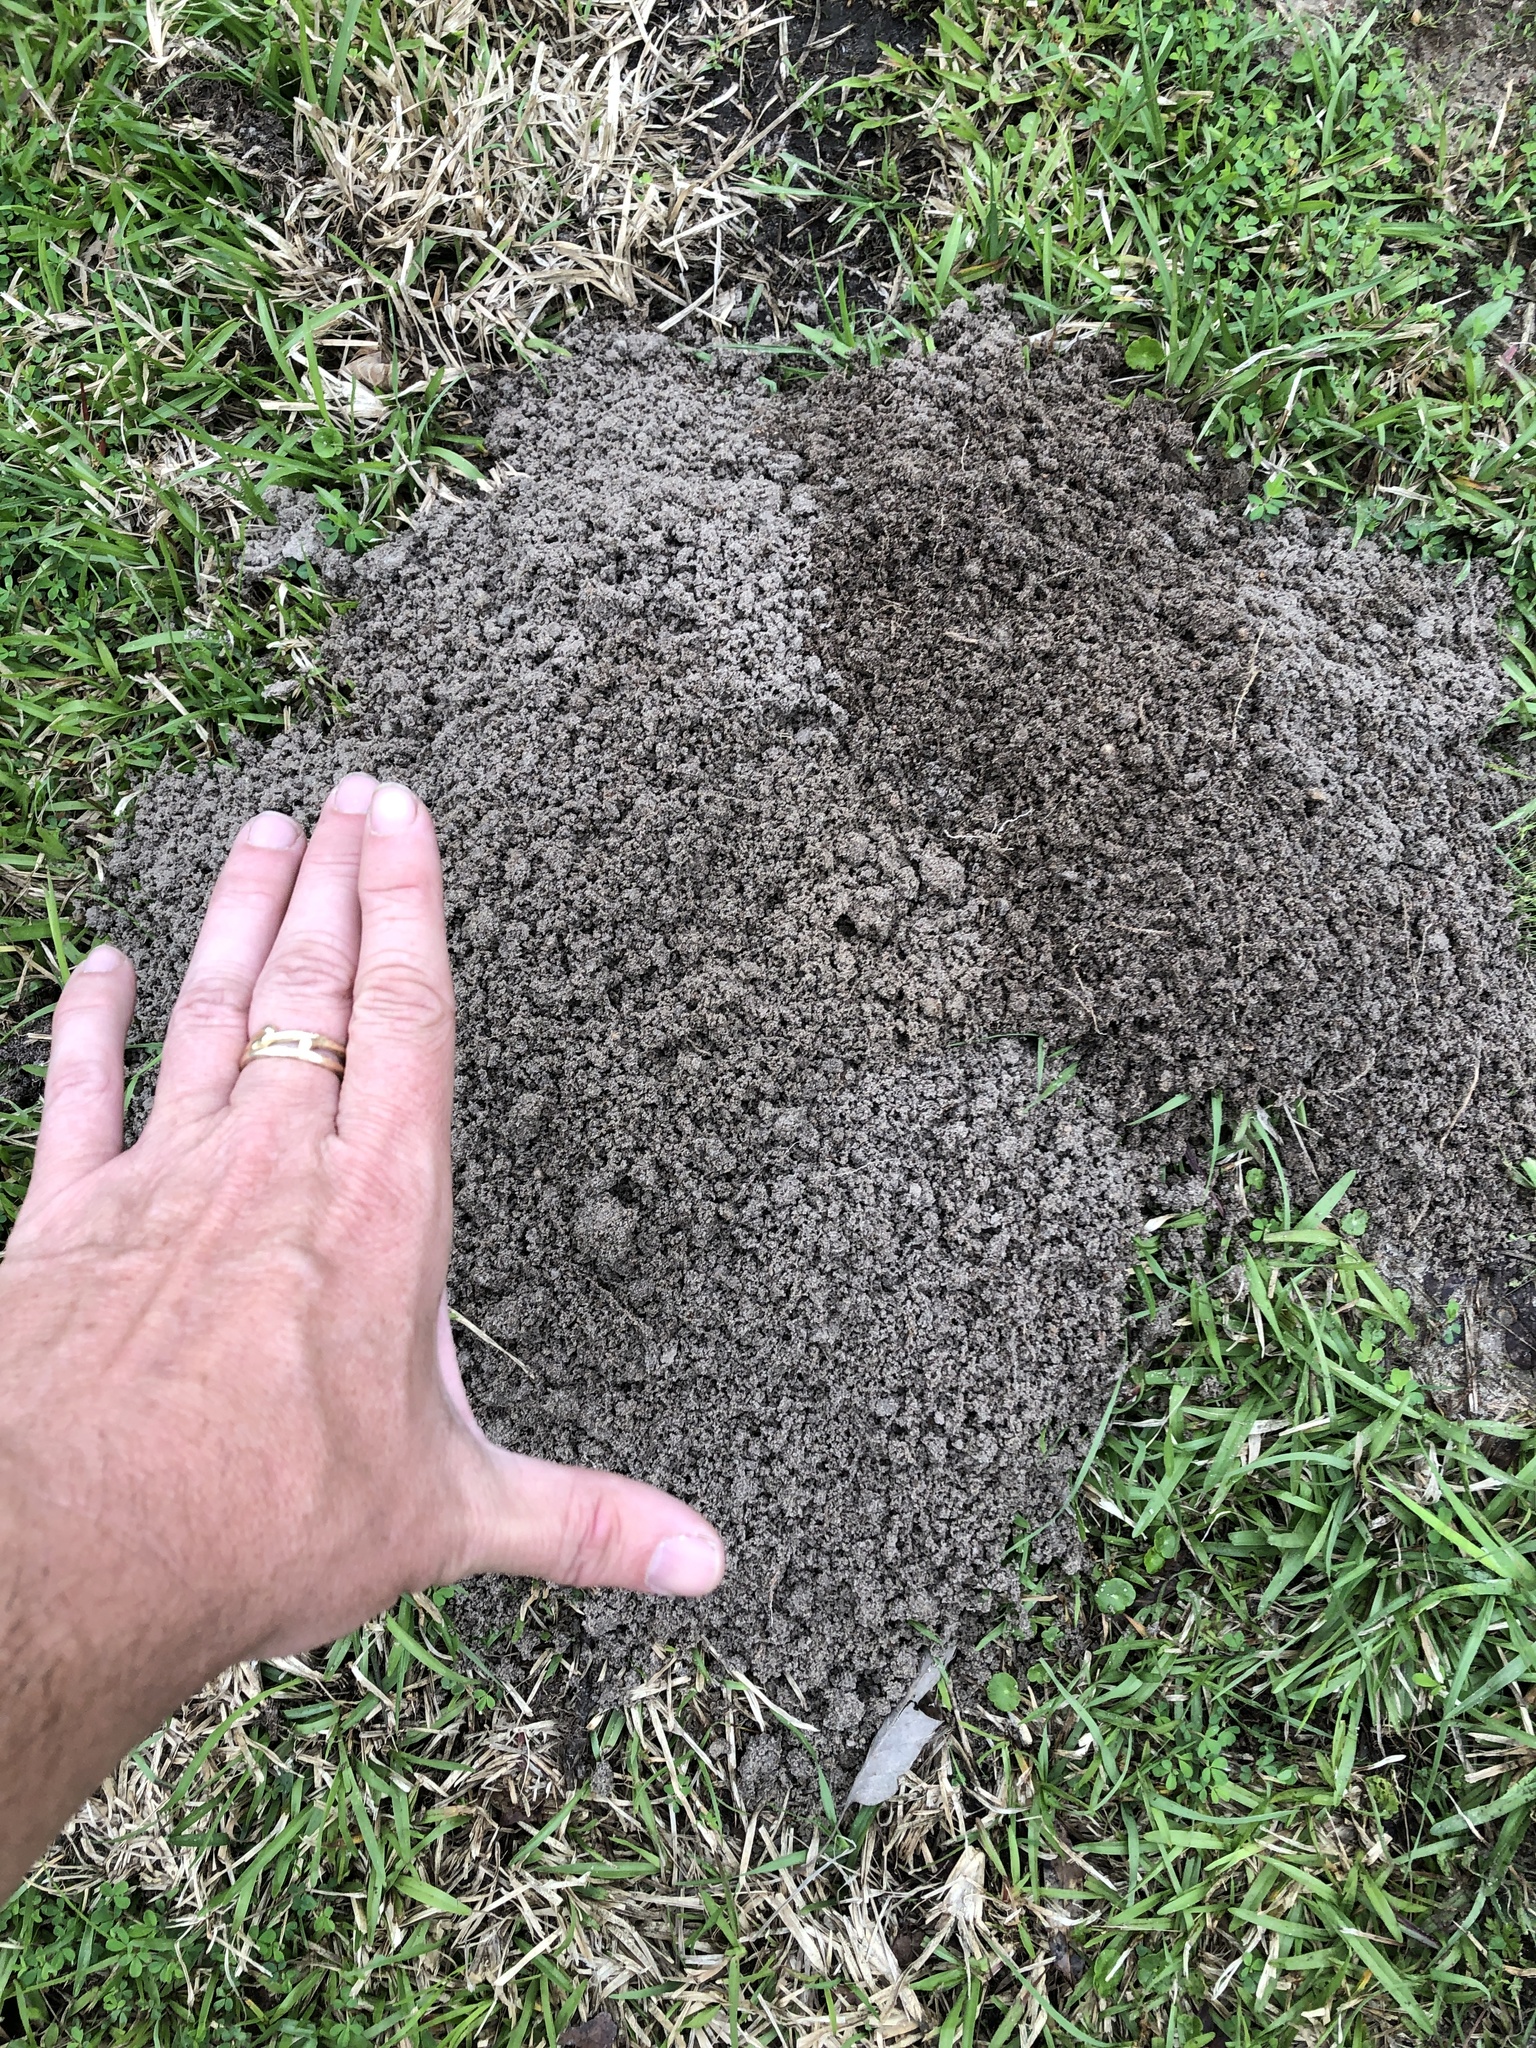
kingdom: Animalia
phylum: Chordata
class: Mammalia
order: Rodentia
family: Geomyidae
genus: Geomys
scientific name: Geomys breviceps
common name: Baird's pocket gopher
